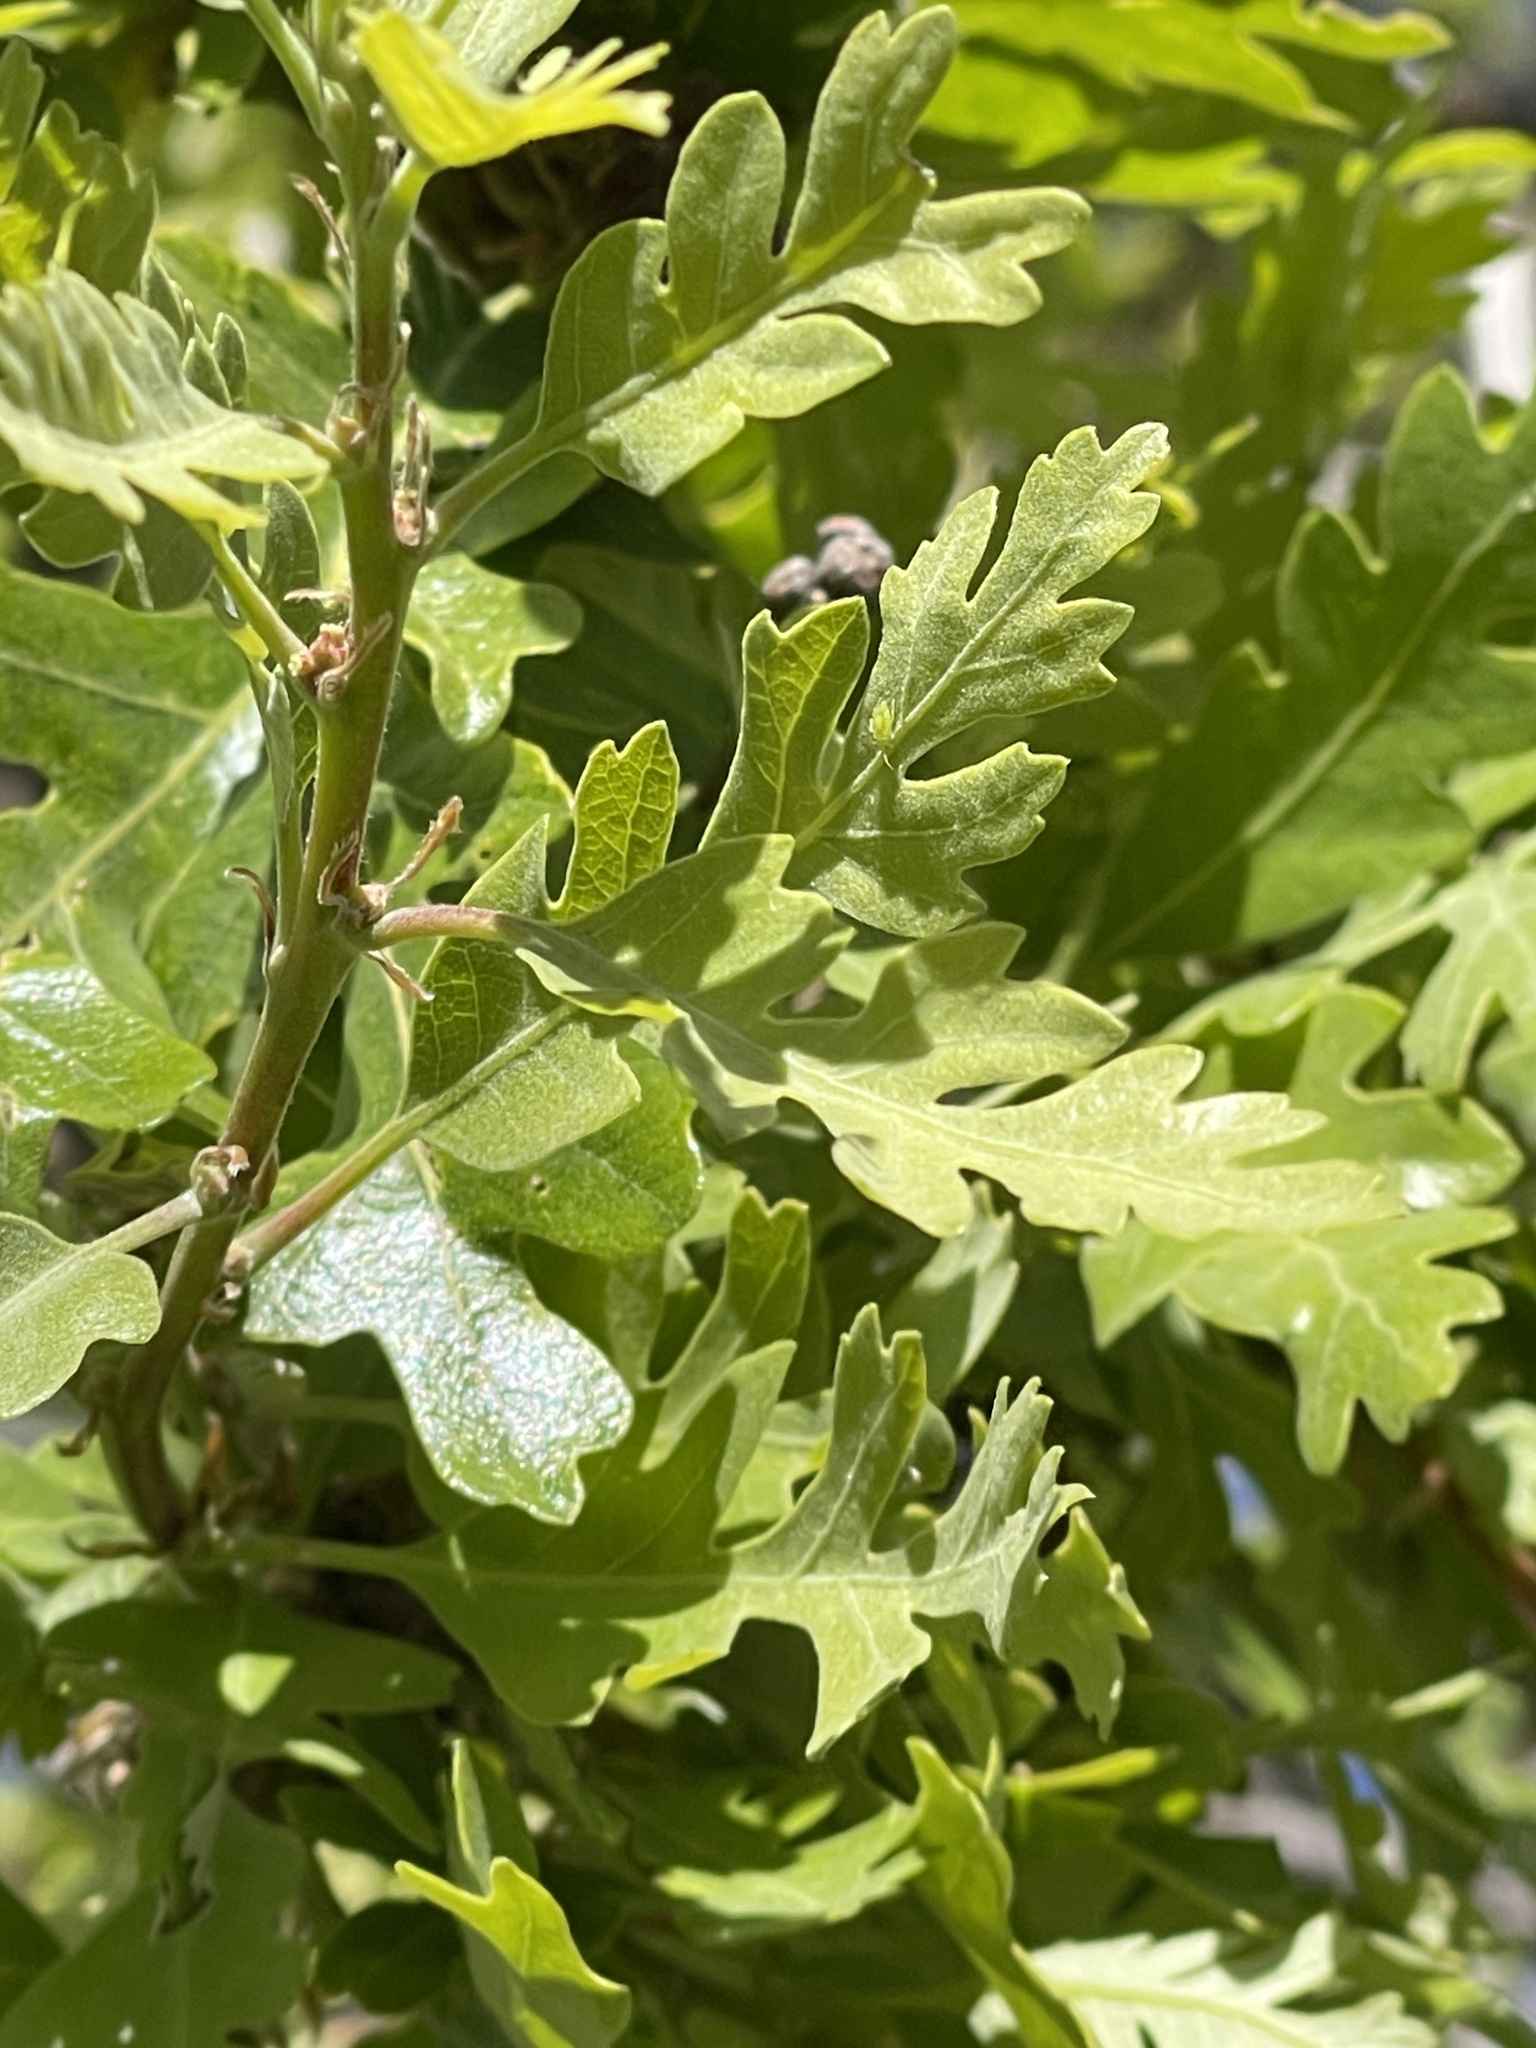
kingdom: Plantae
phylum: Tracheophyta
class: Magnoliopsida
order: Fagales
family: Fagaceae
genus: Quercus
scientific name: Quercus lobata
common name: Valley oak
